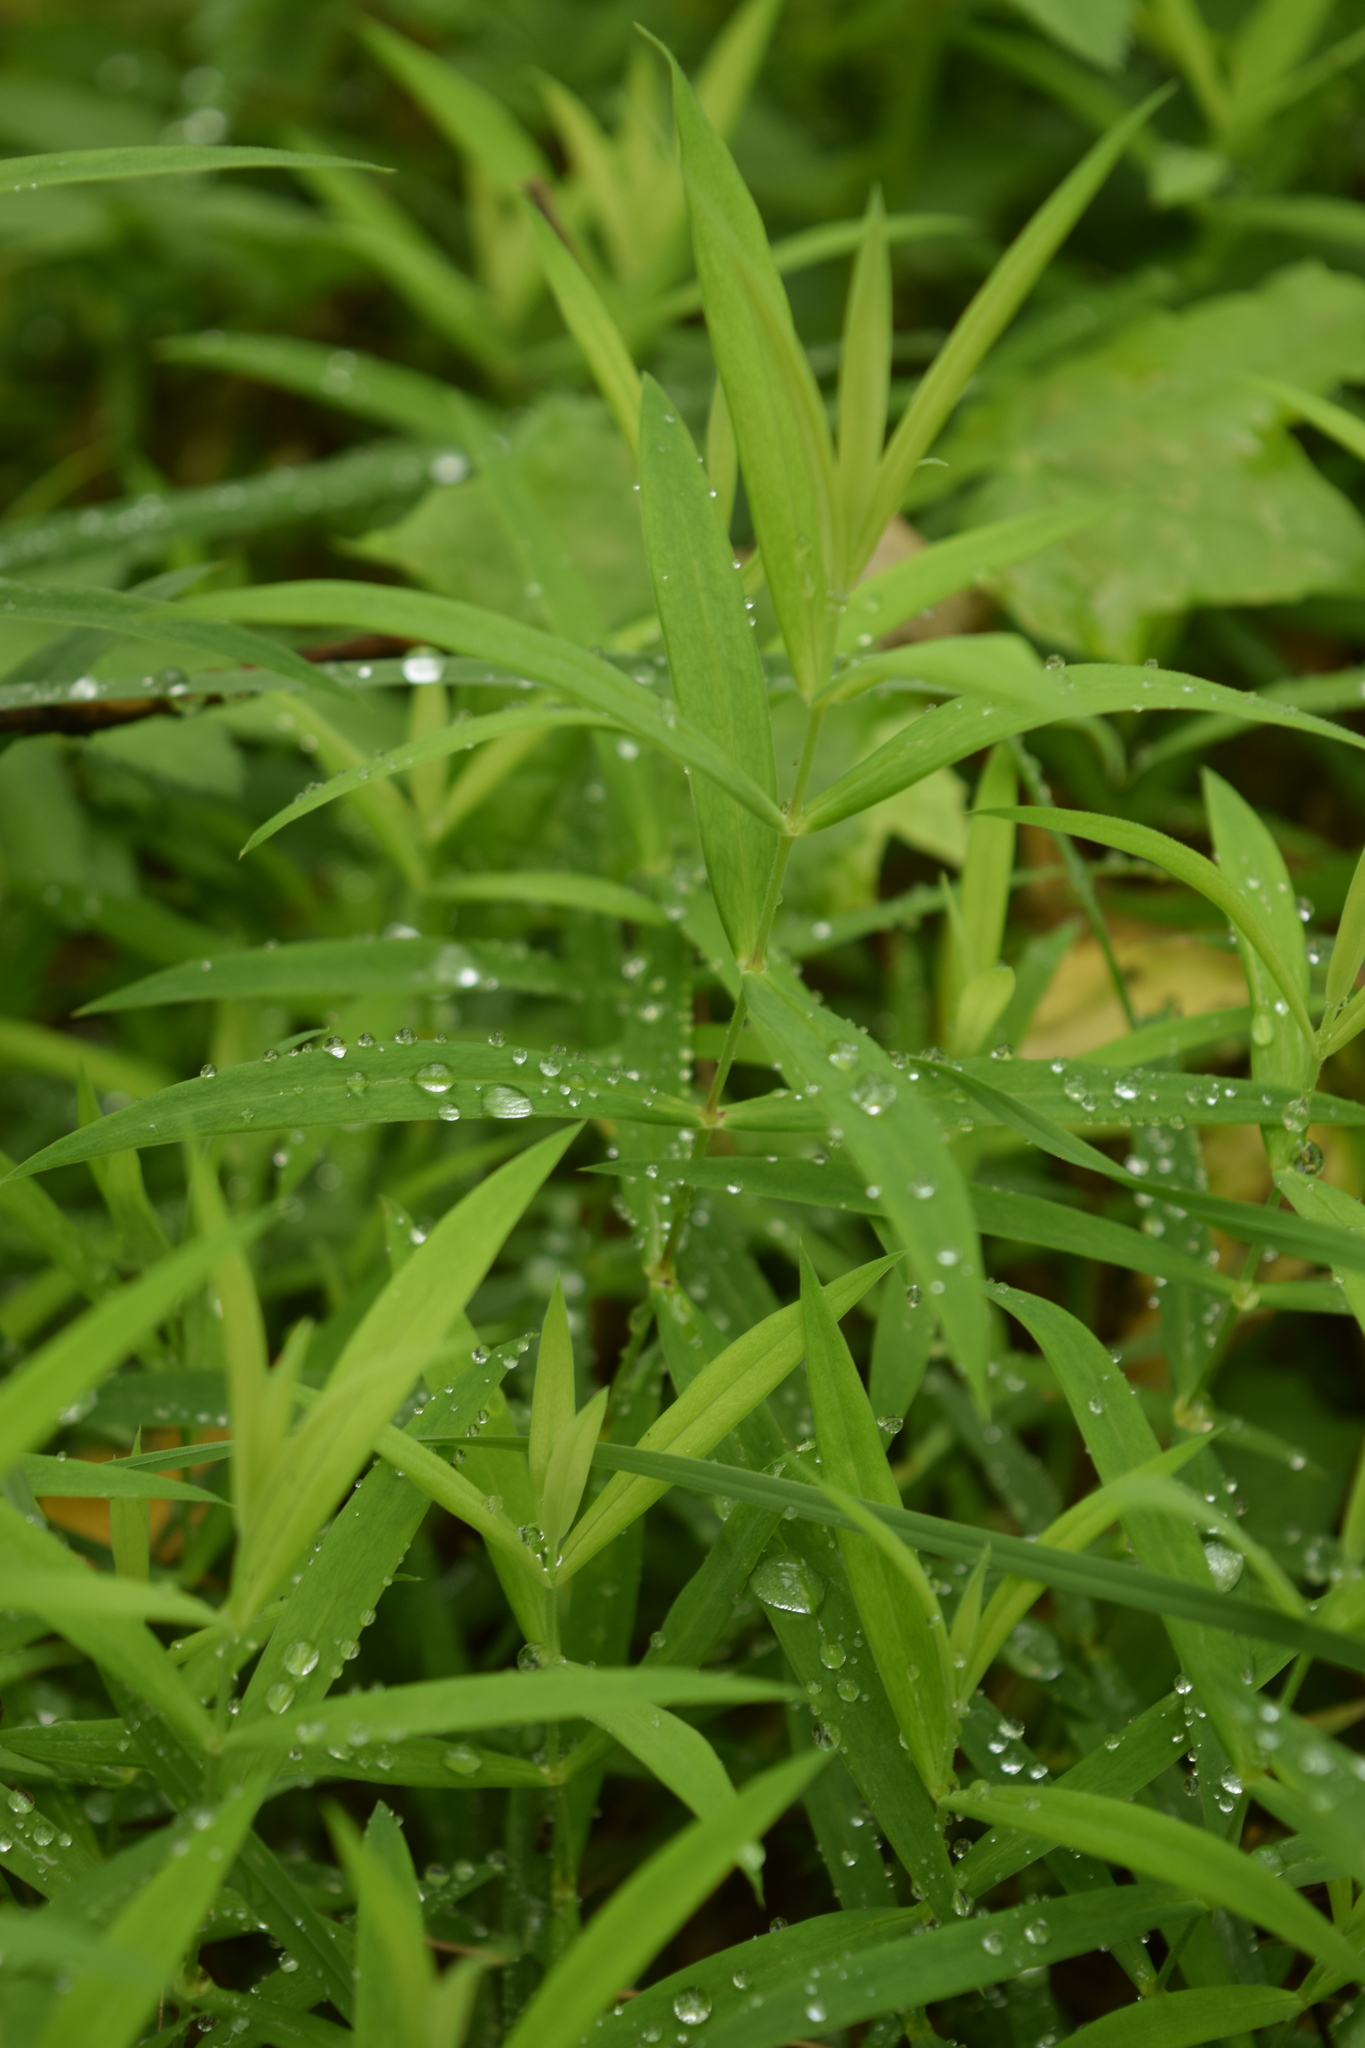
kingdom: Plantae
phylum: Tracheophyta
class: Magnoliopsida
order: Caryophyllales
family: Caryophyllaceae
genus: Rabelera
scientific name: Rabelera holostea
